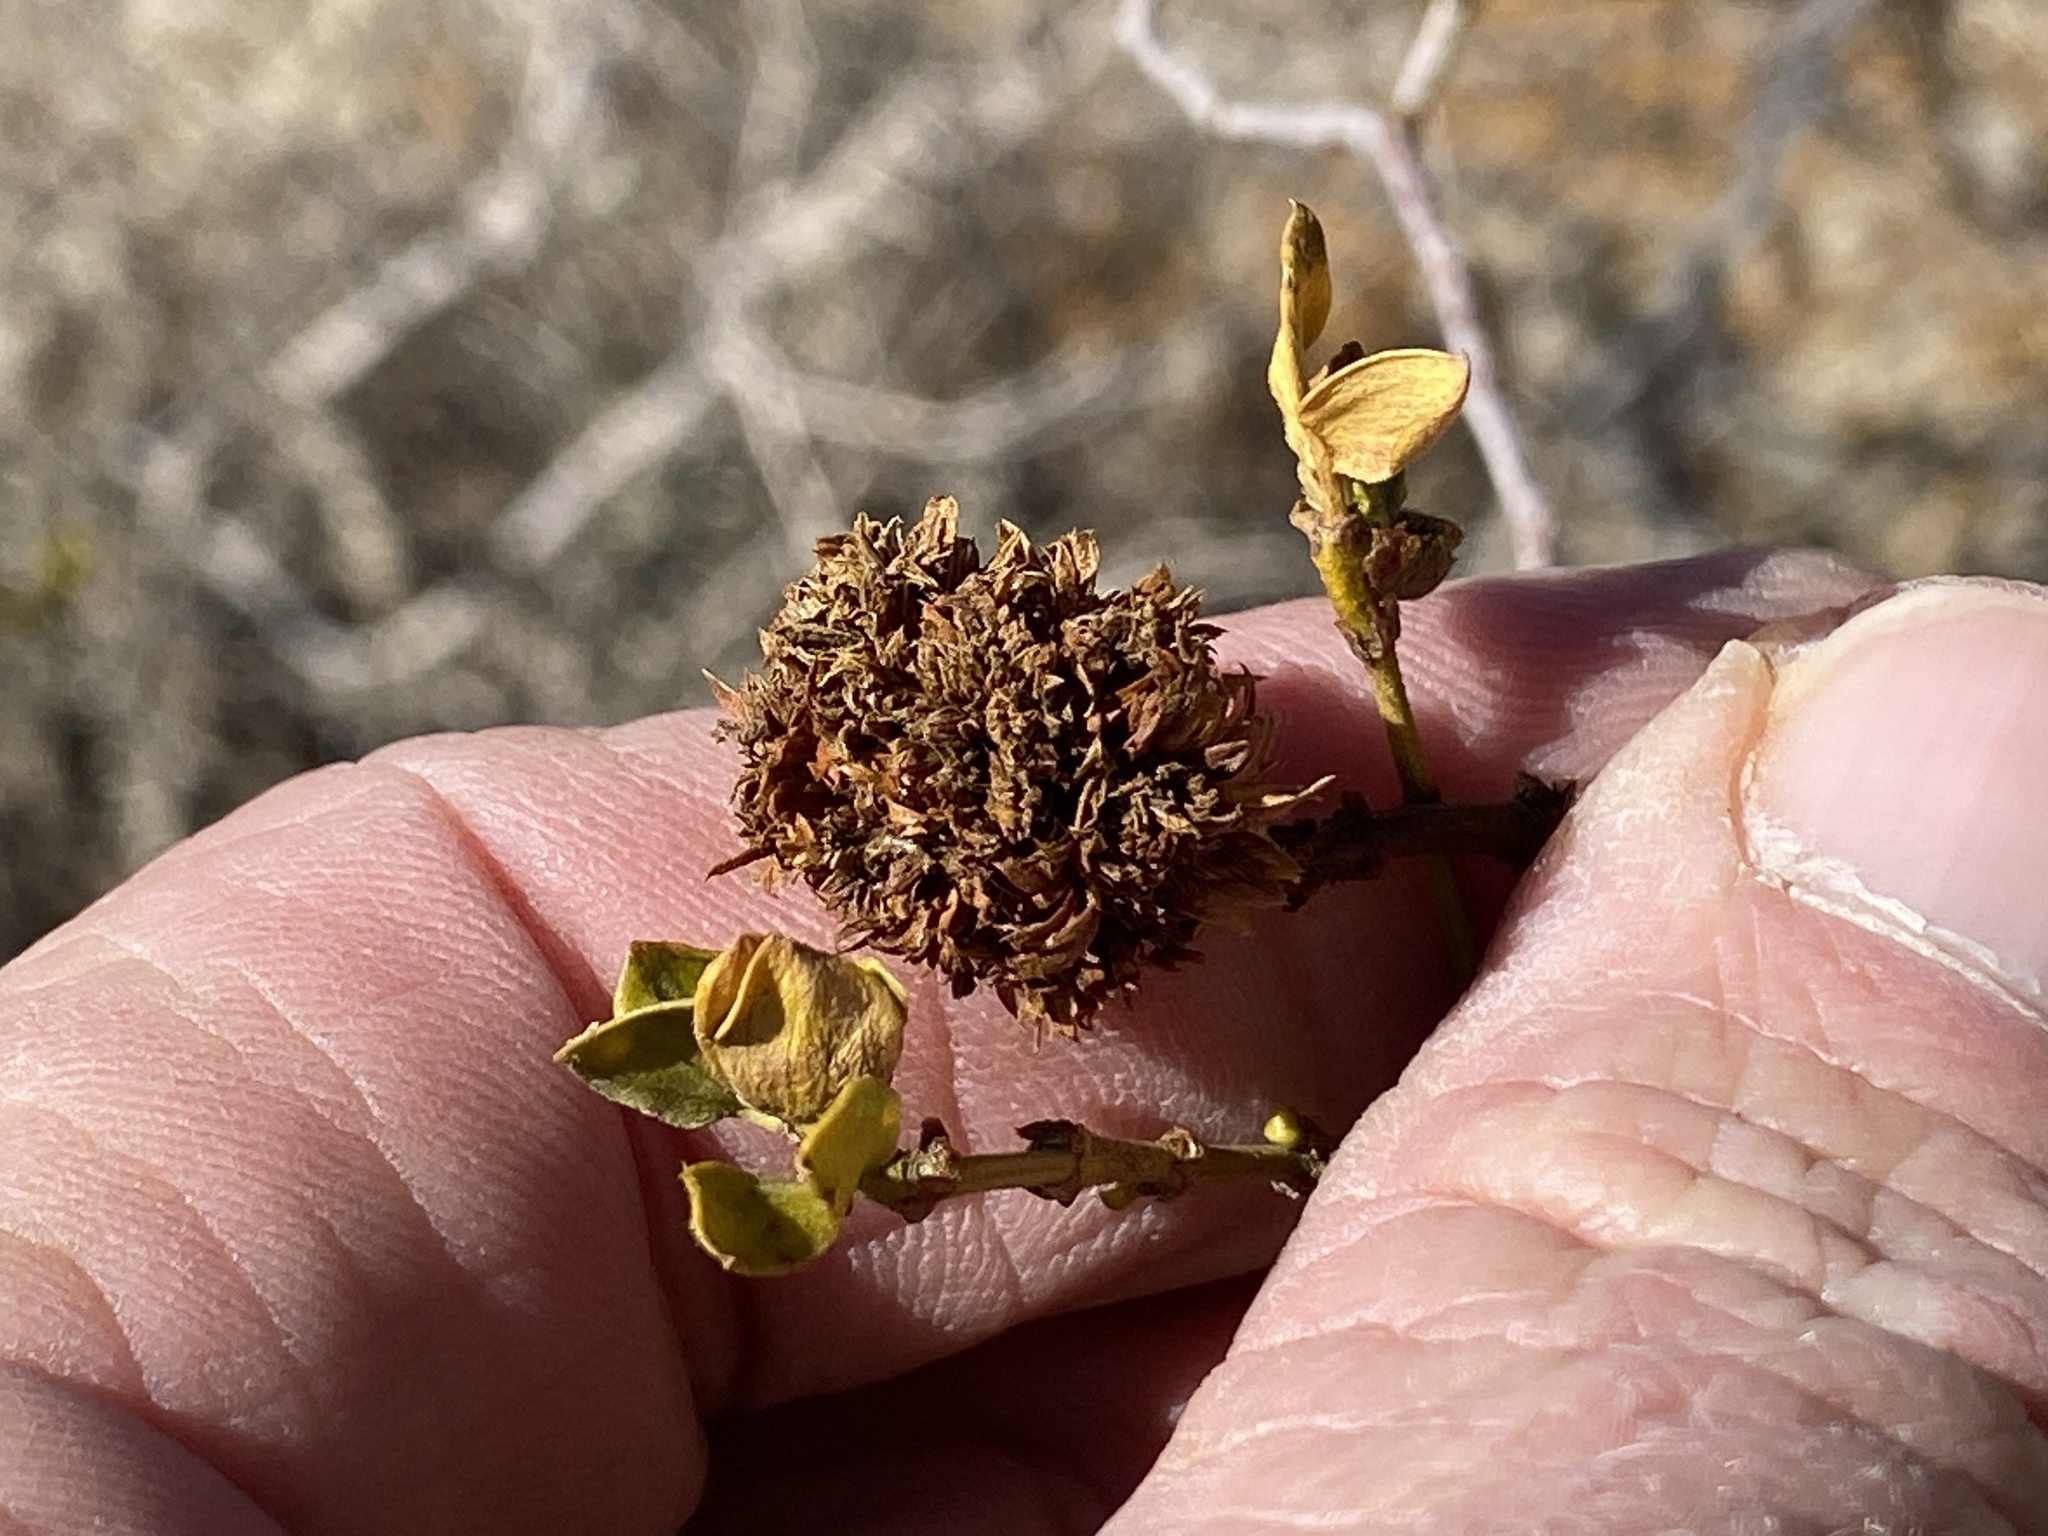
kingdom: Animalia
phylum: Arthropoda
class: Insecta
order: Diptera
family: Cecidomyiidae
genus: Asphondylia
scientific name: Asphondylia auripila
